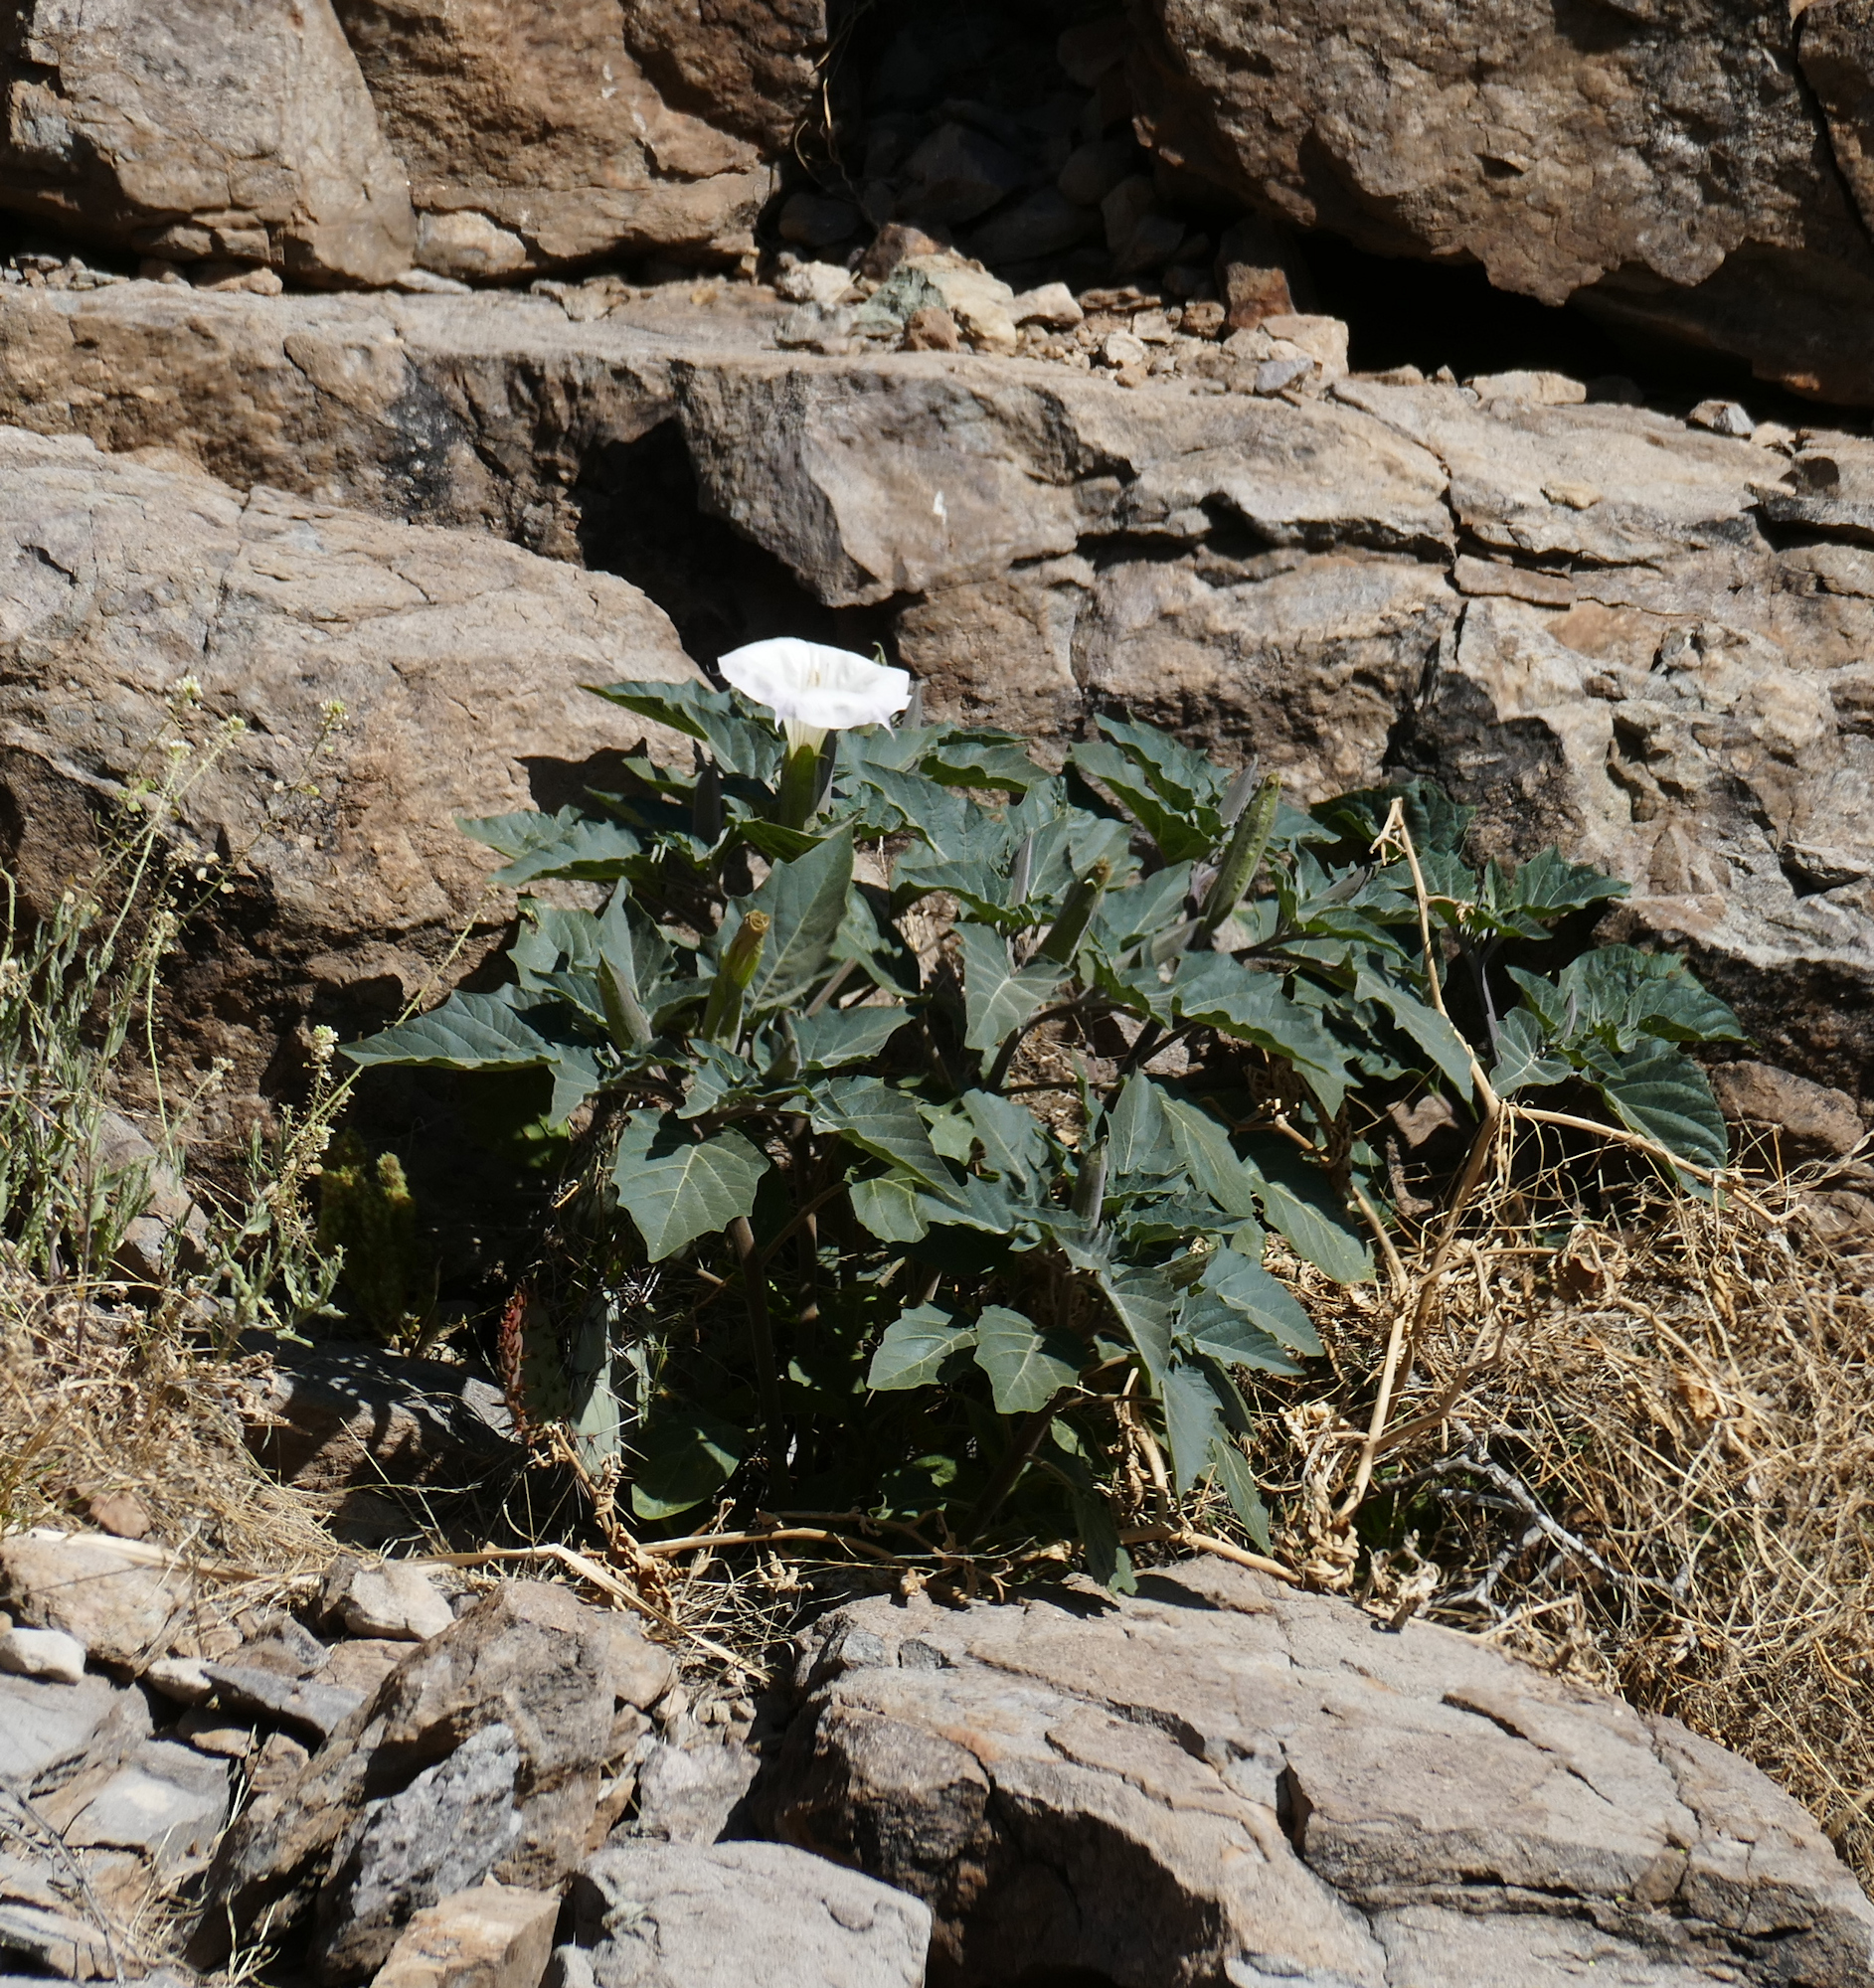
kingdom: Plantae
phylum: Tracheophyta
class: Magnoliopsida
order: Solanales
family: Solanaceae
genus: Datura
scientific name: Datura wrightii
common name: Sacred thorn-apple
